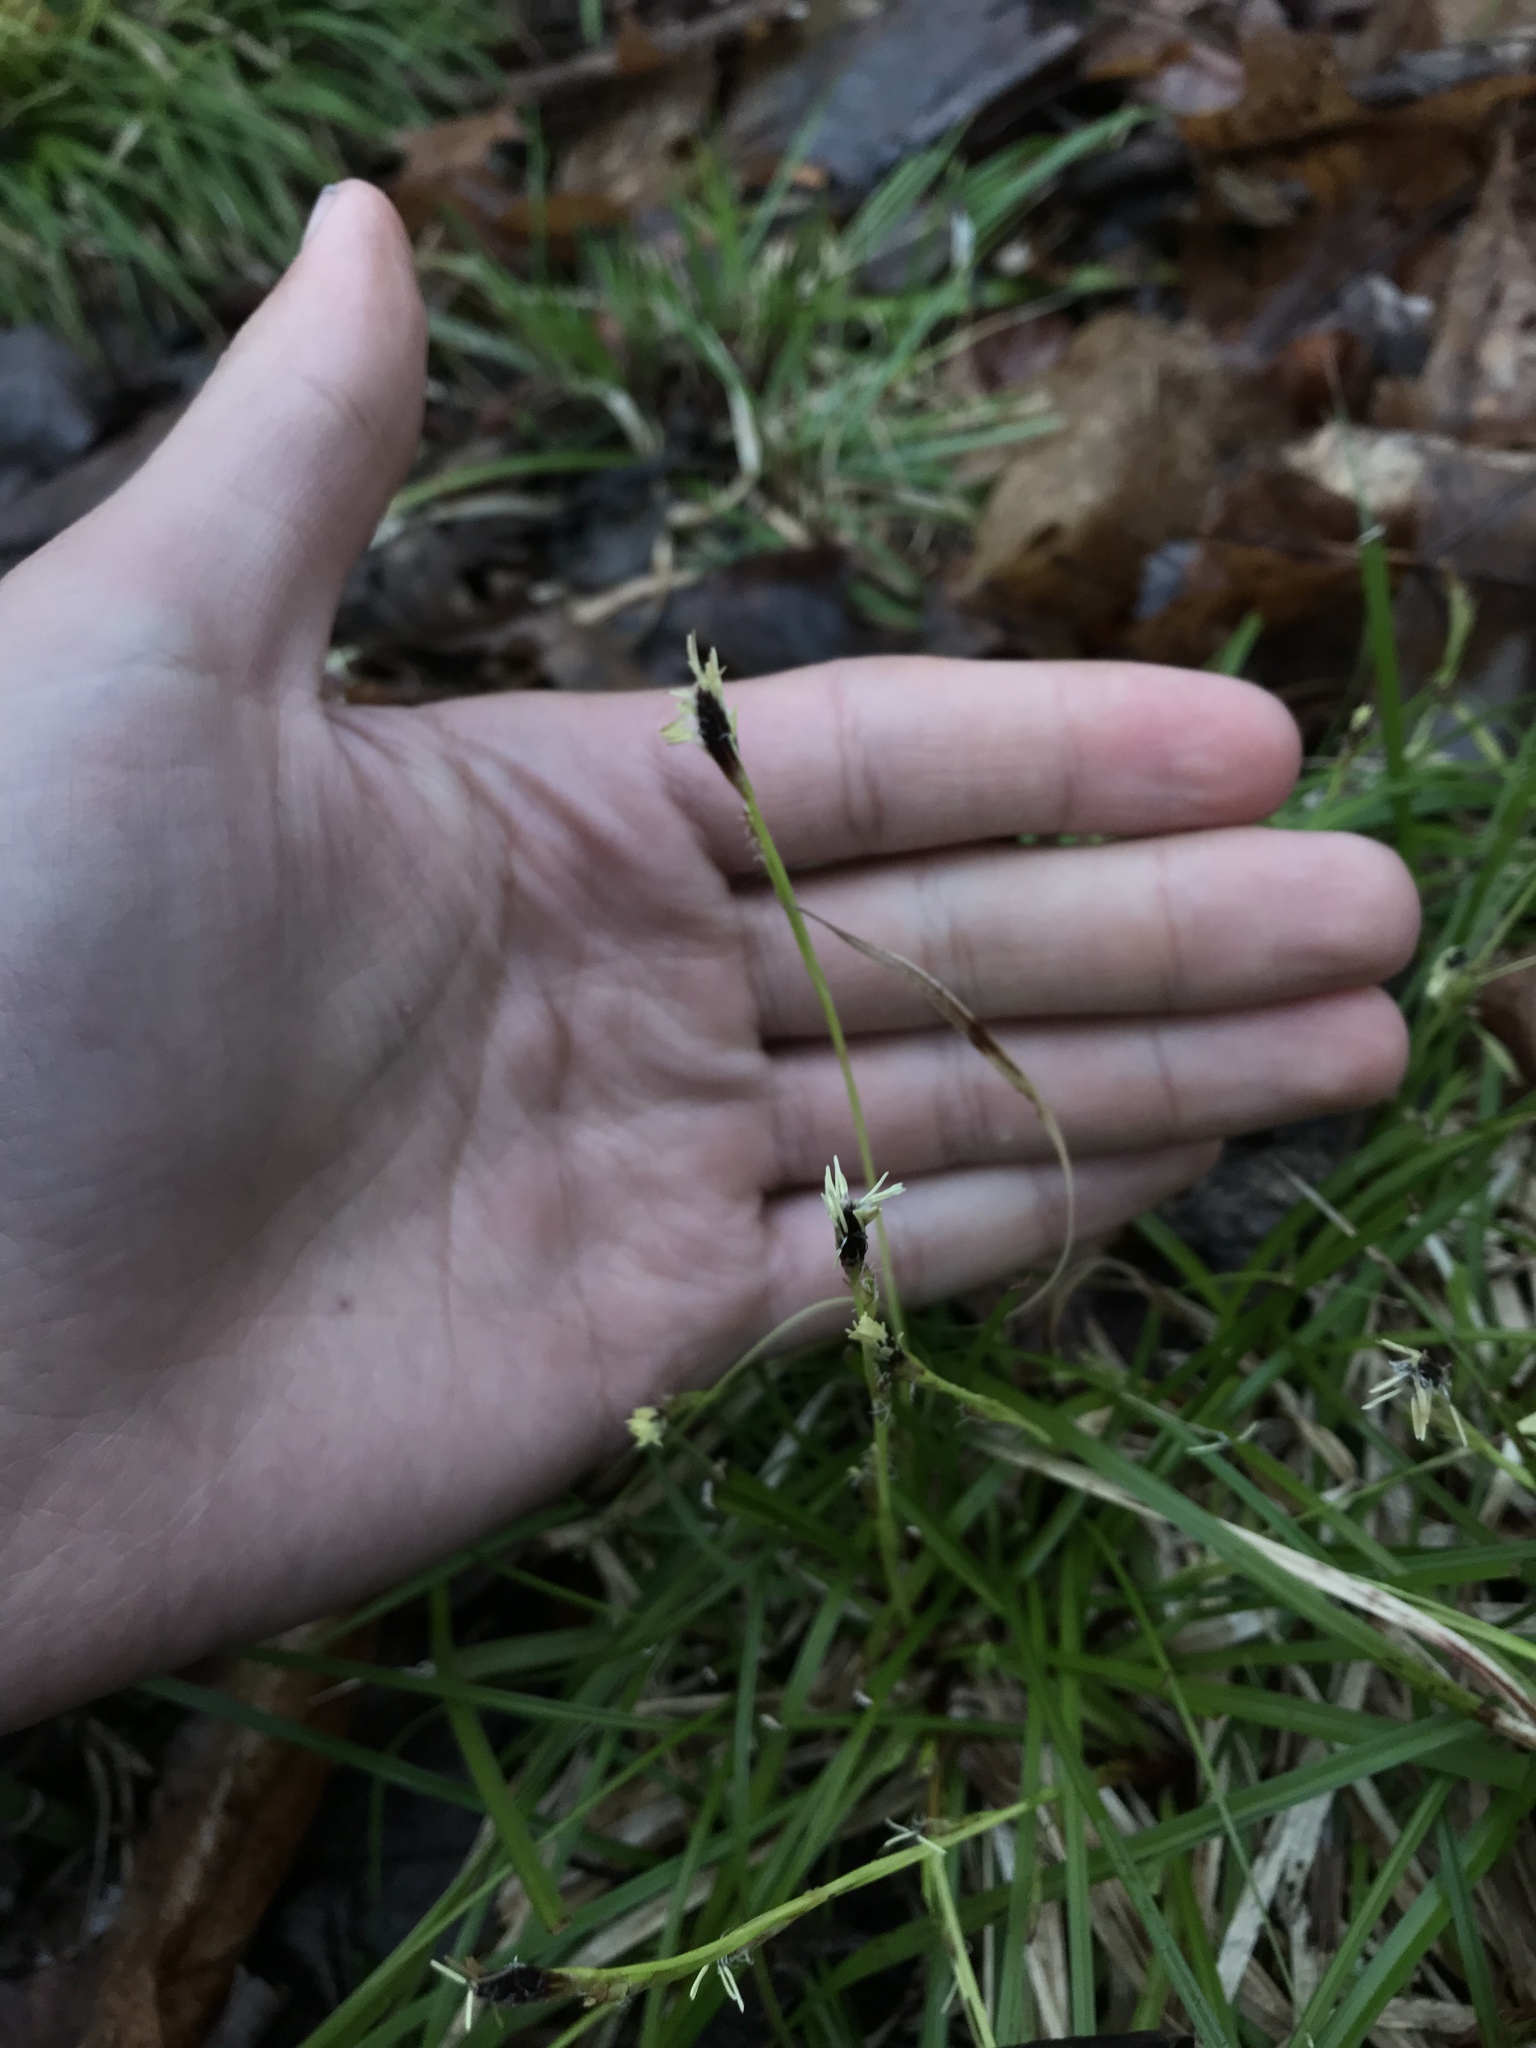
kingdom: Plantae
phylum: Tracheophyta
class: Liliopsida
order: Poales
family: Cyperaceae
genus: Carex
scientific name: Carex pedunculata
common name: Pedunculate sedge
